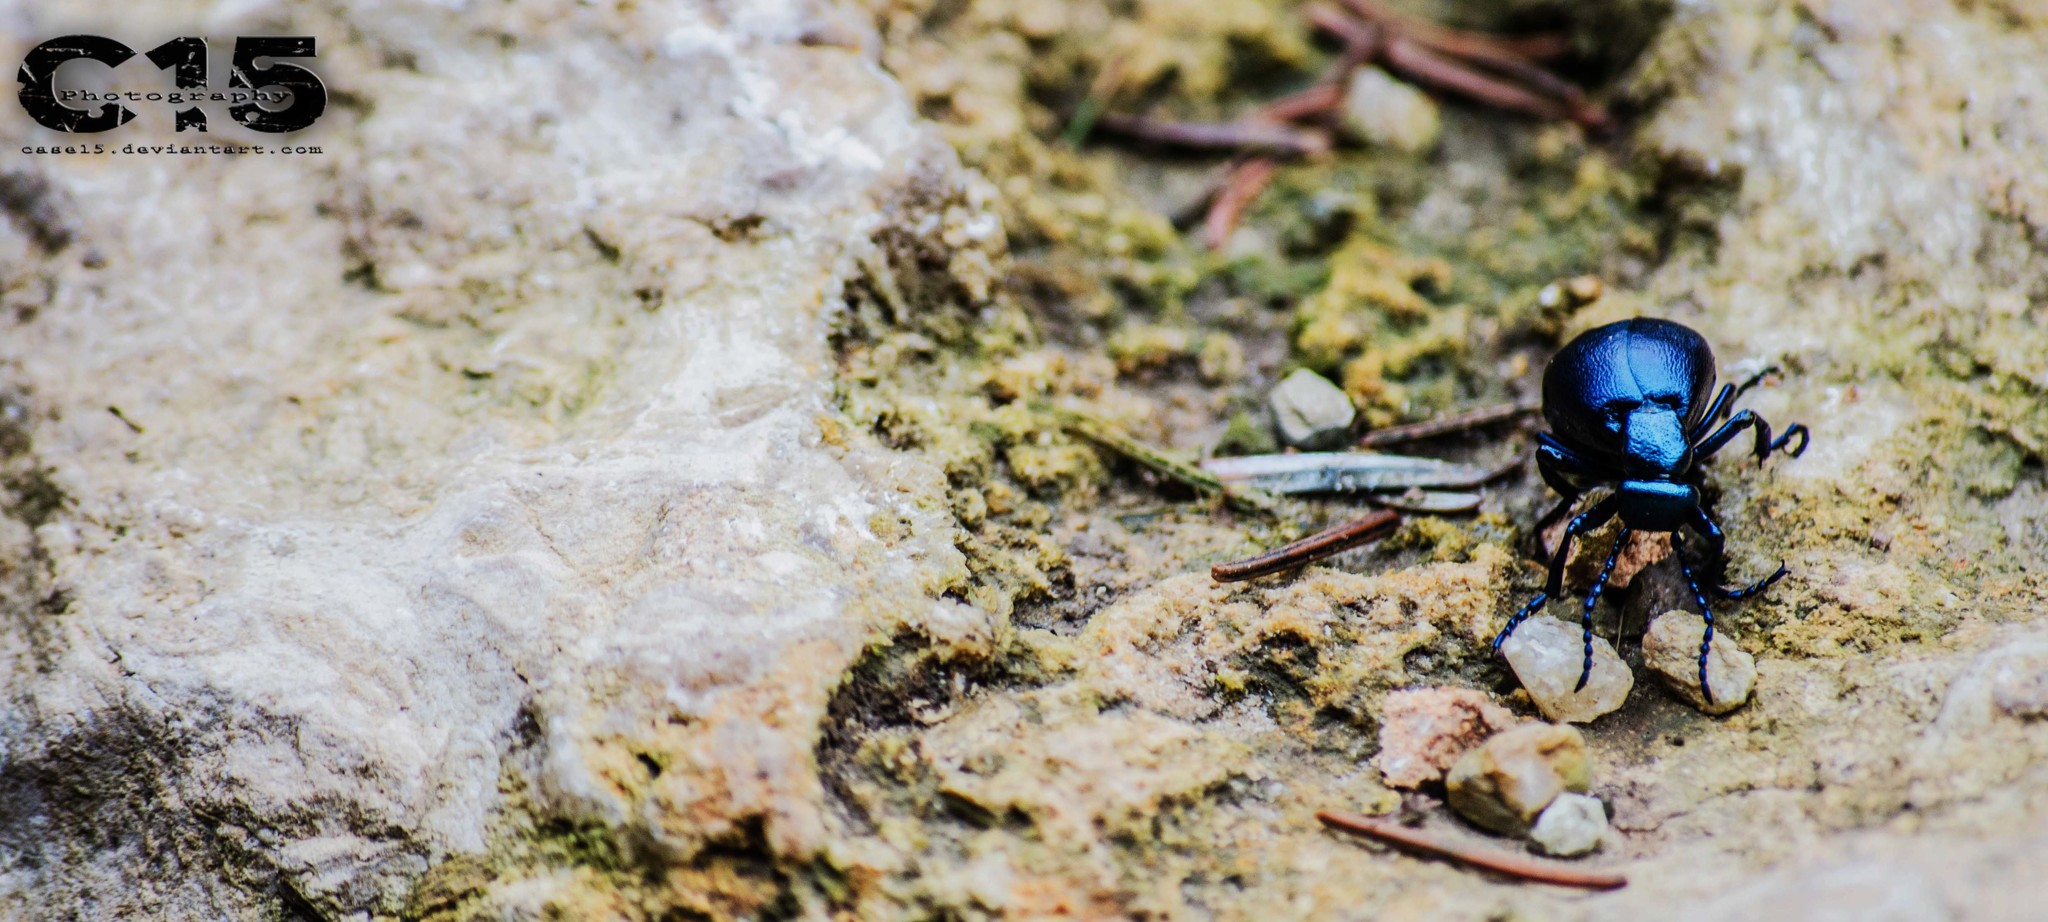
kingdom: Animalia
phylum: Arthropoda
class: Insecta
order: Coleoptera
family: Meloidae
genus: Meloe
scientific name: Meloe violaceus
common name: Violet oil-beetle
